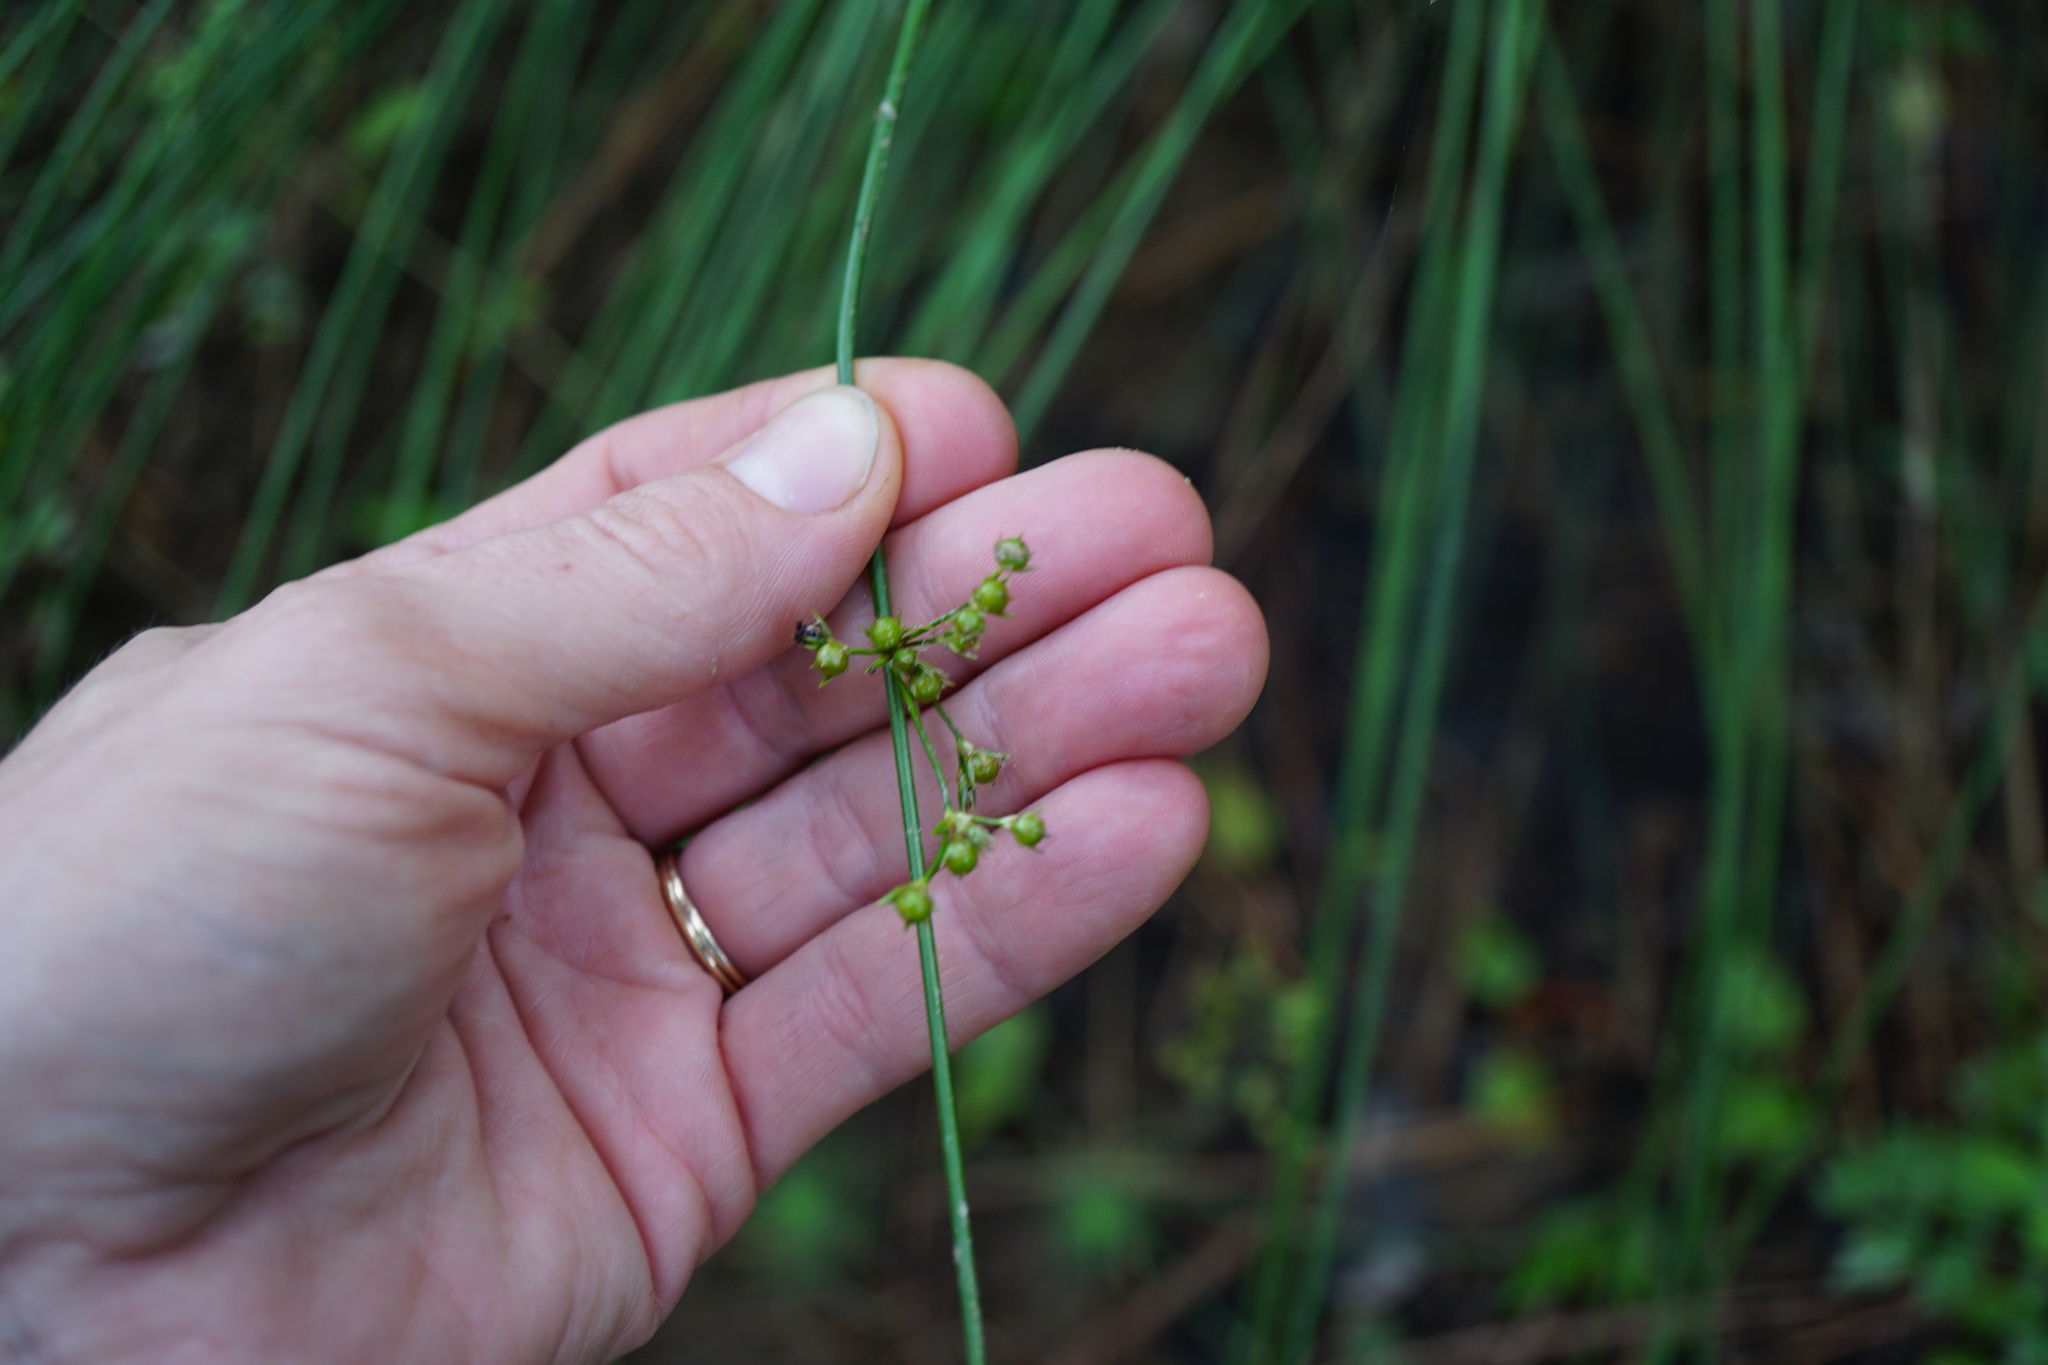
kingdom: Plantae
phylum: Tracheophyta
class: Liliopsida
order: Poales
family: Juncaceae
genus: Juncus
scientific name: Juncus coriaceus
